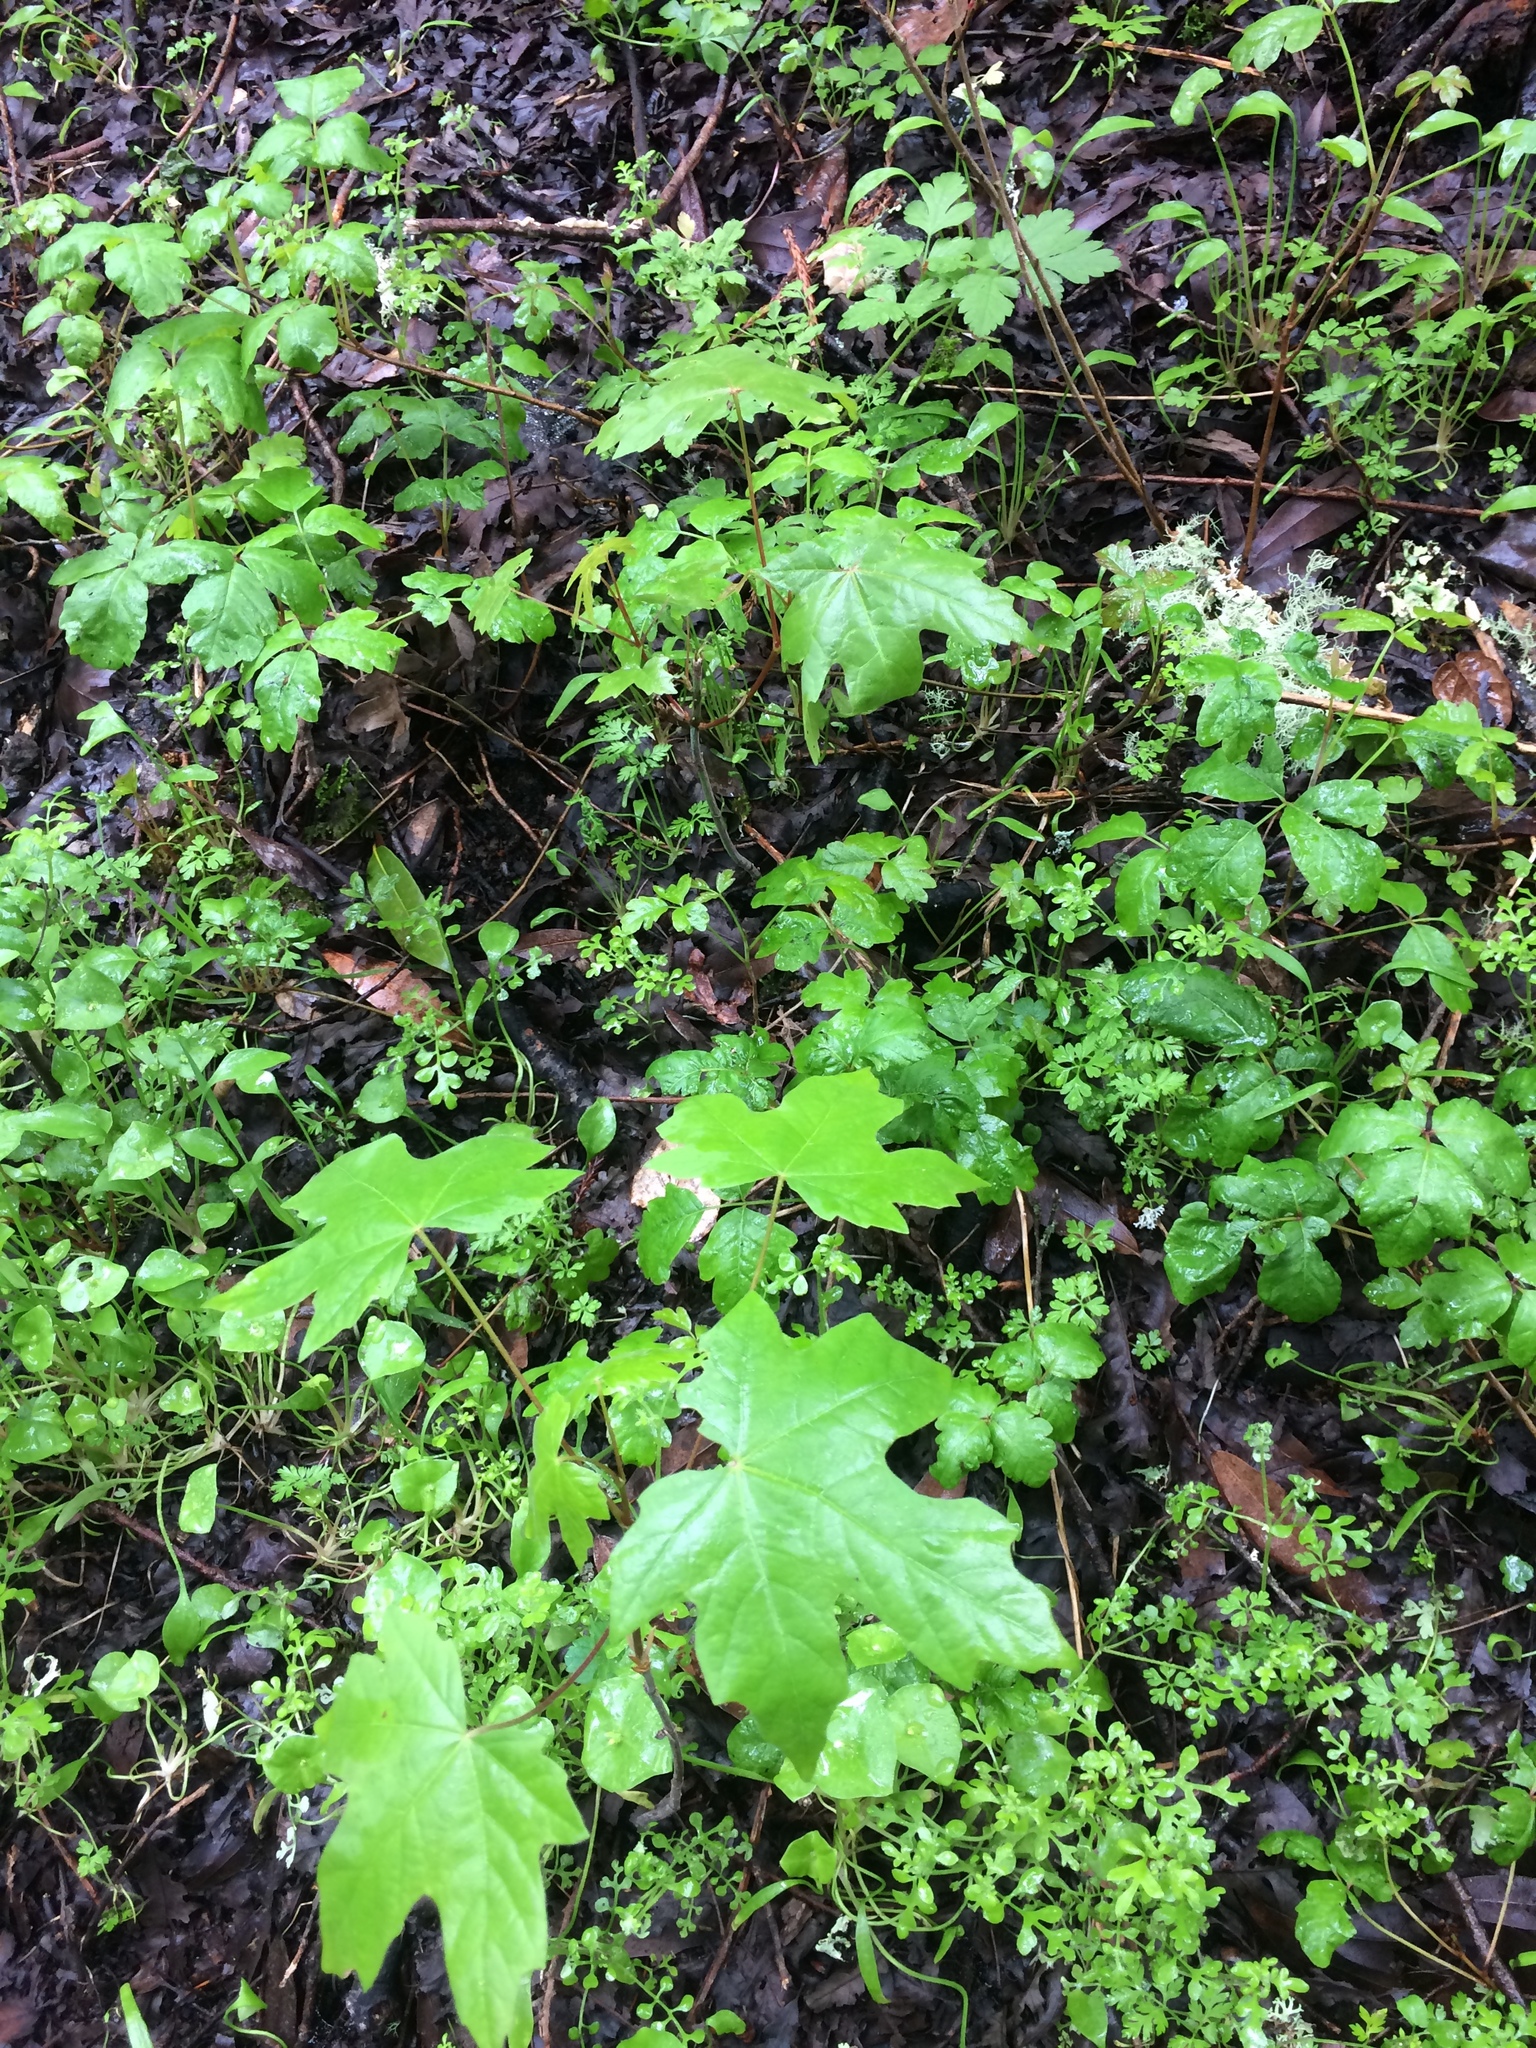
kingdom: Plantae
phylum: Tracheophyta
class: Magnoliopsida
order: Sapindales
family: Sapindaceae
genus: Acer
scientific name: Acer macrophyllum
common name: Oregon maple
